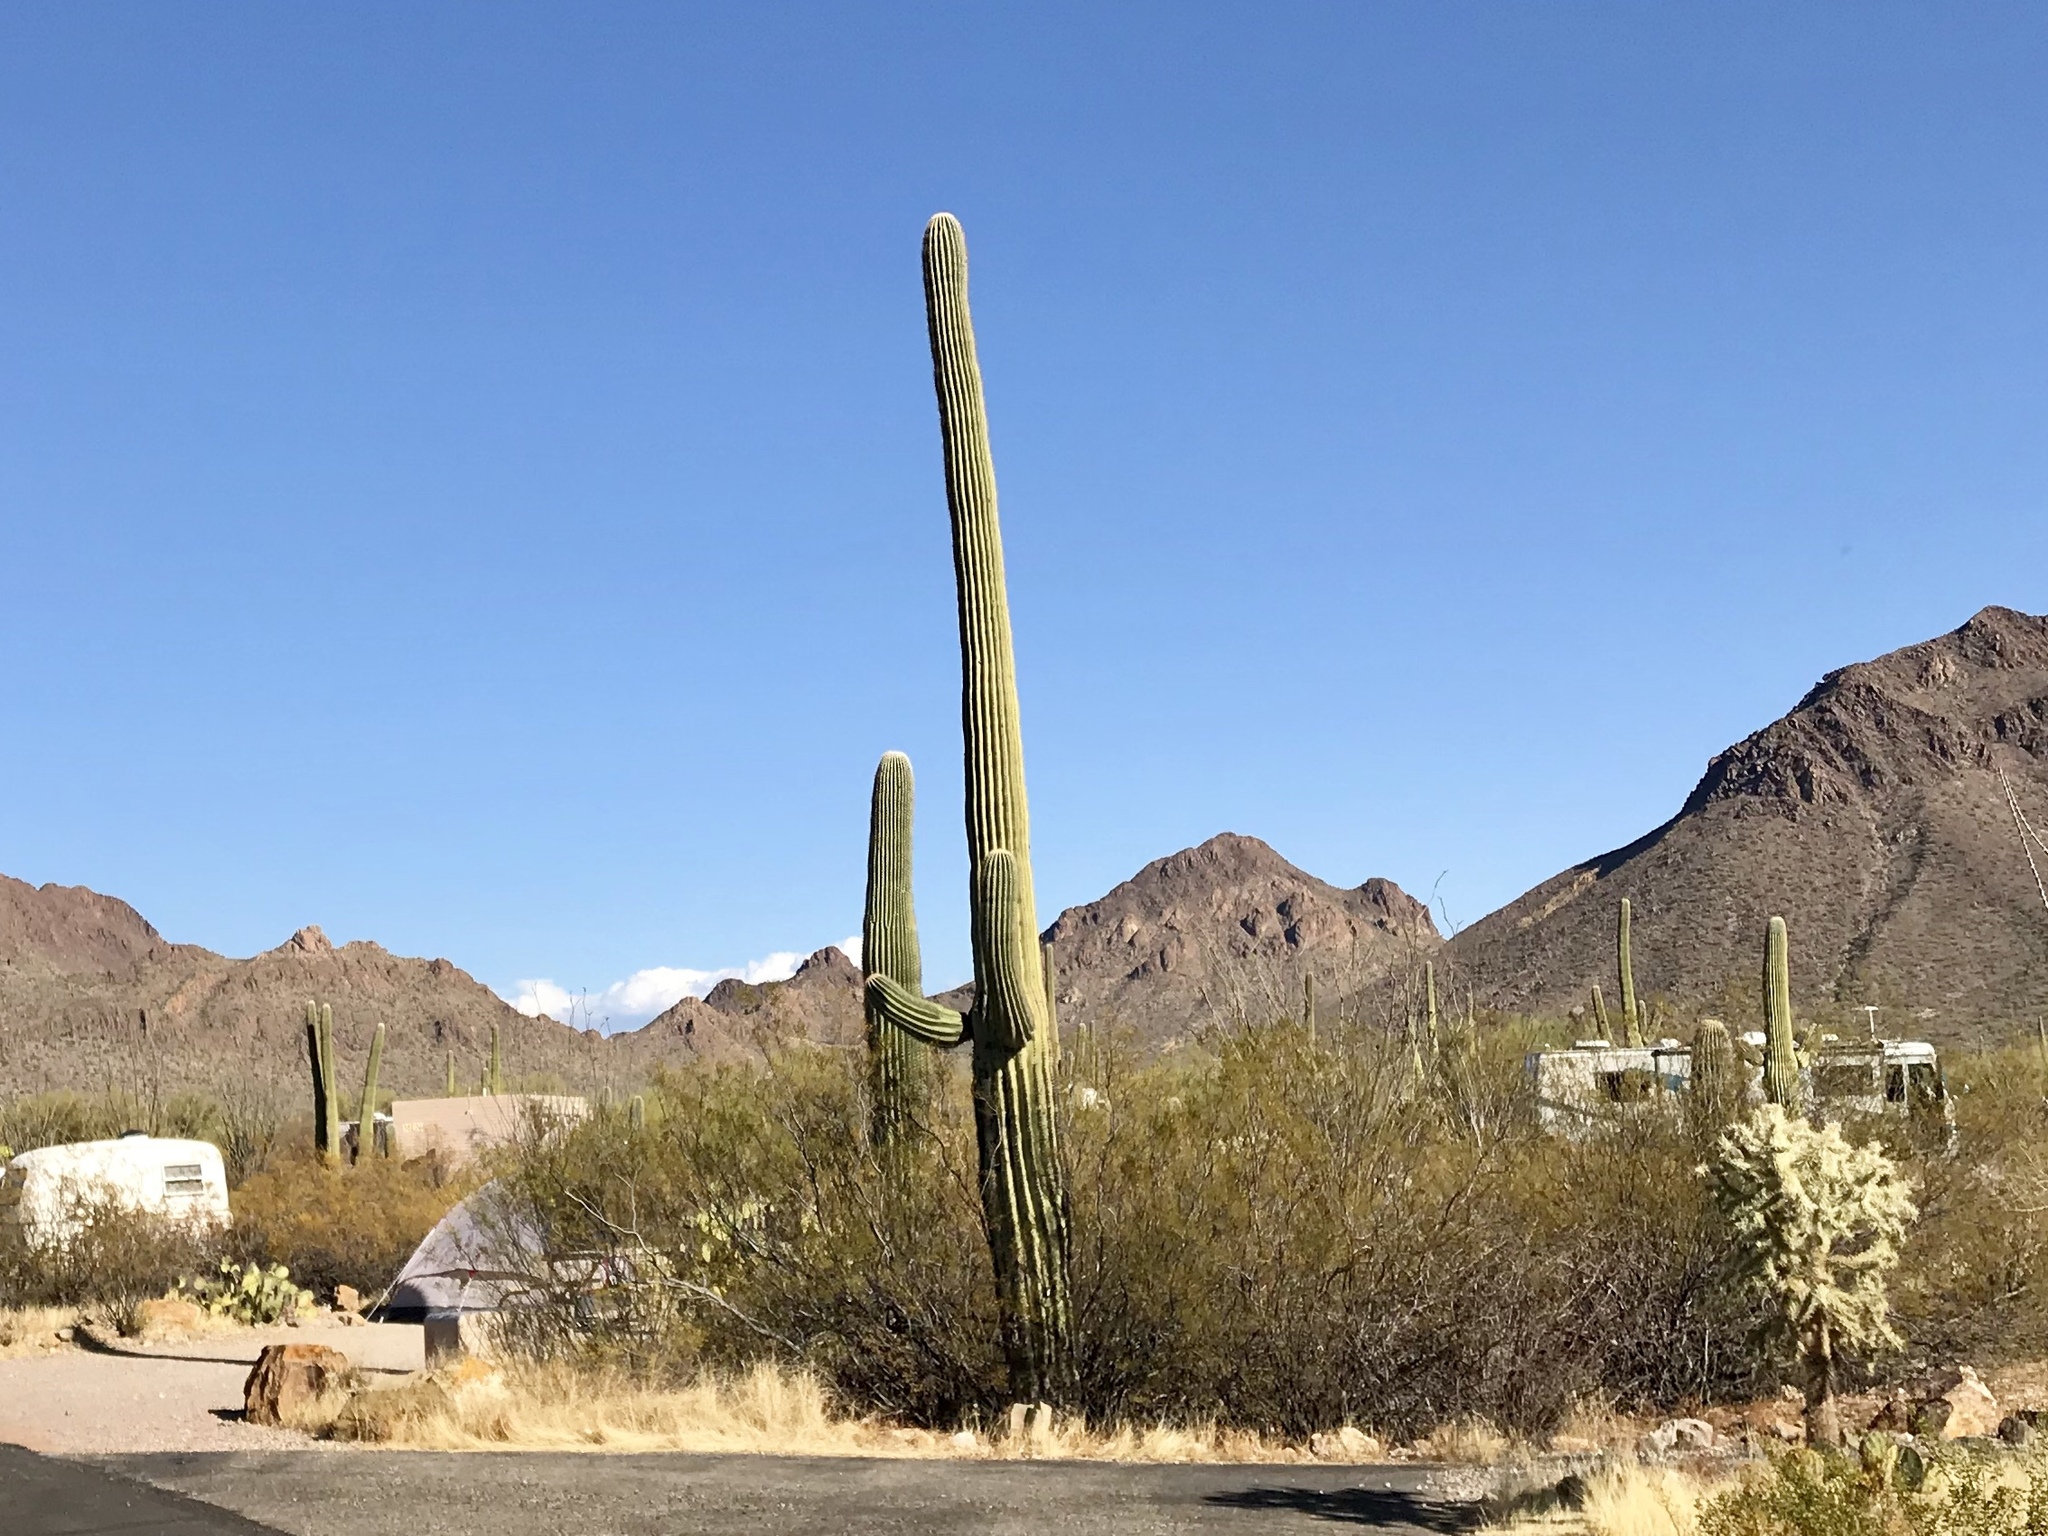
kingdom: Plantae
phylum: Tracheophyta
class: Magnoliopsida
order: Caryophyllales
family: Cactaceae
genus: Carnegiea
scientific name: Carnegiea gigantea
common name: Saguaro
